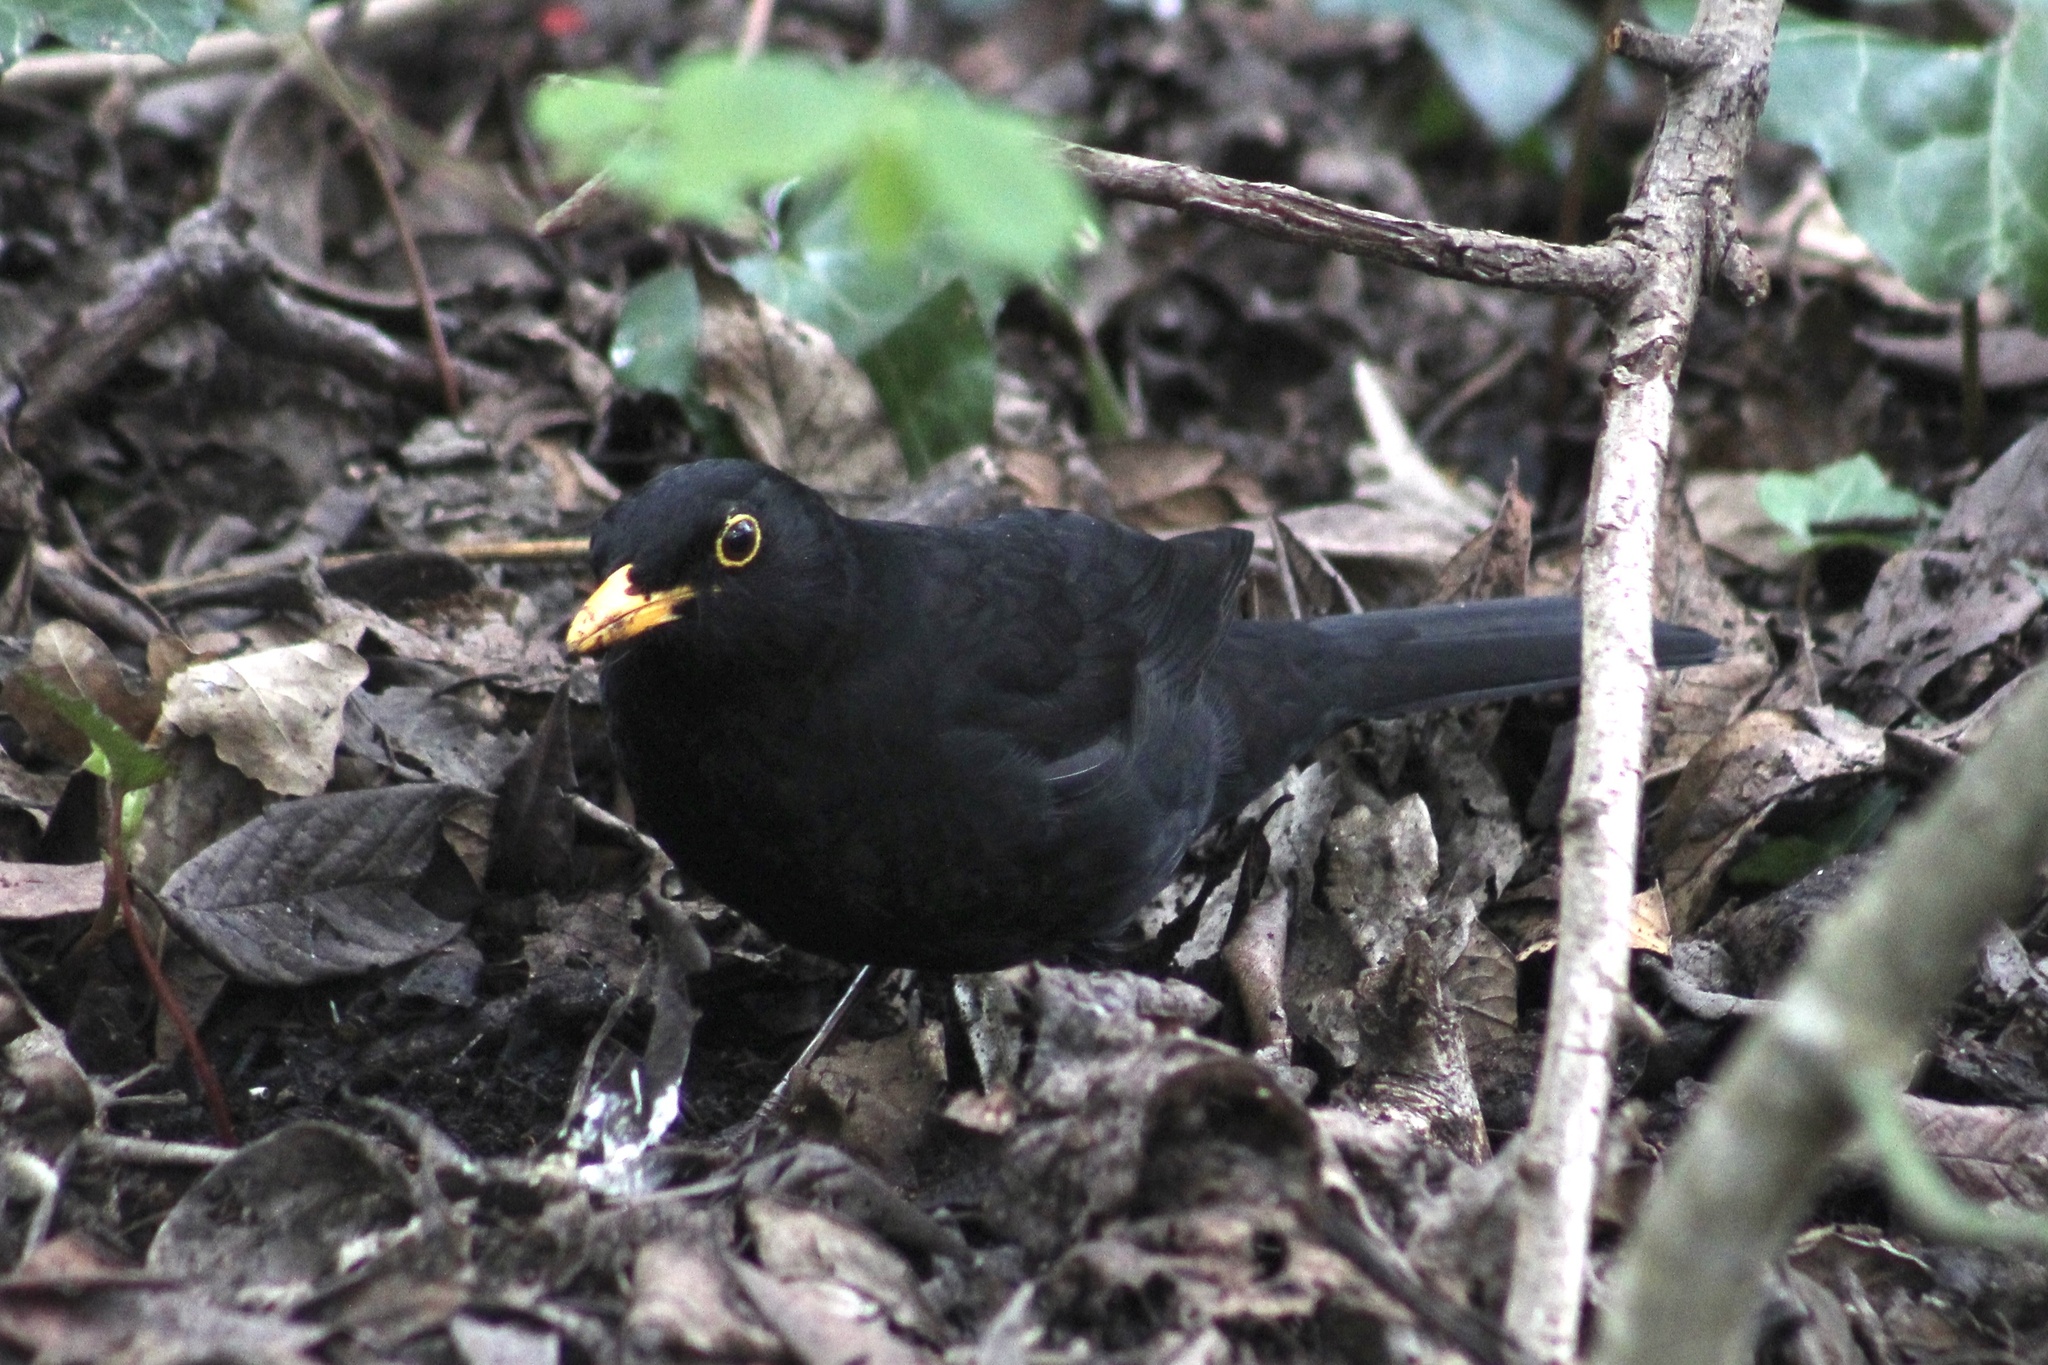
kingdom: Animalia
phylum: Chordata
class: Aves
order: Passeriformes
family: Turdidae
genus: Turdus
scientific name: Turdus merula
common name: Common blackbird
